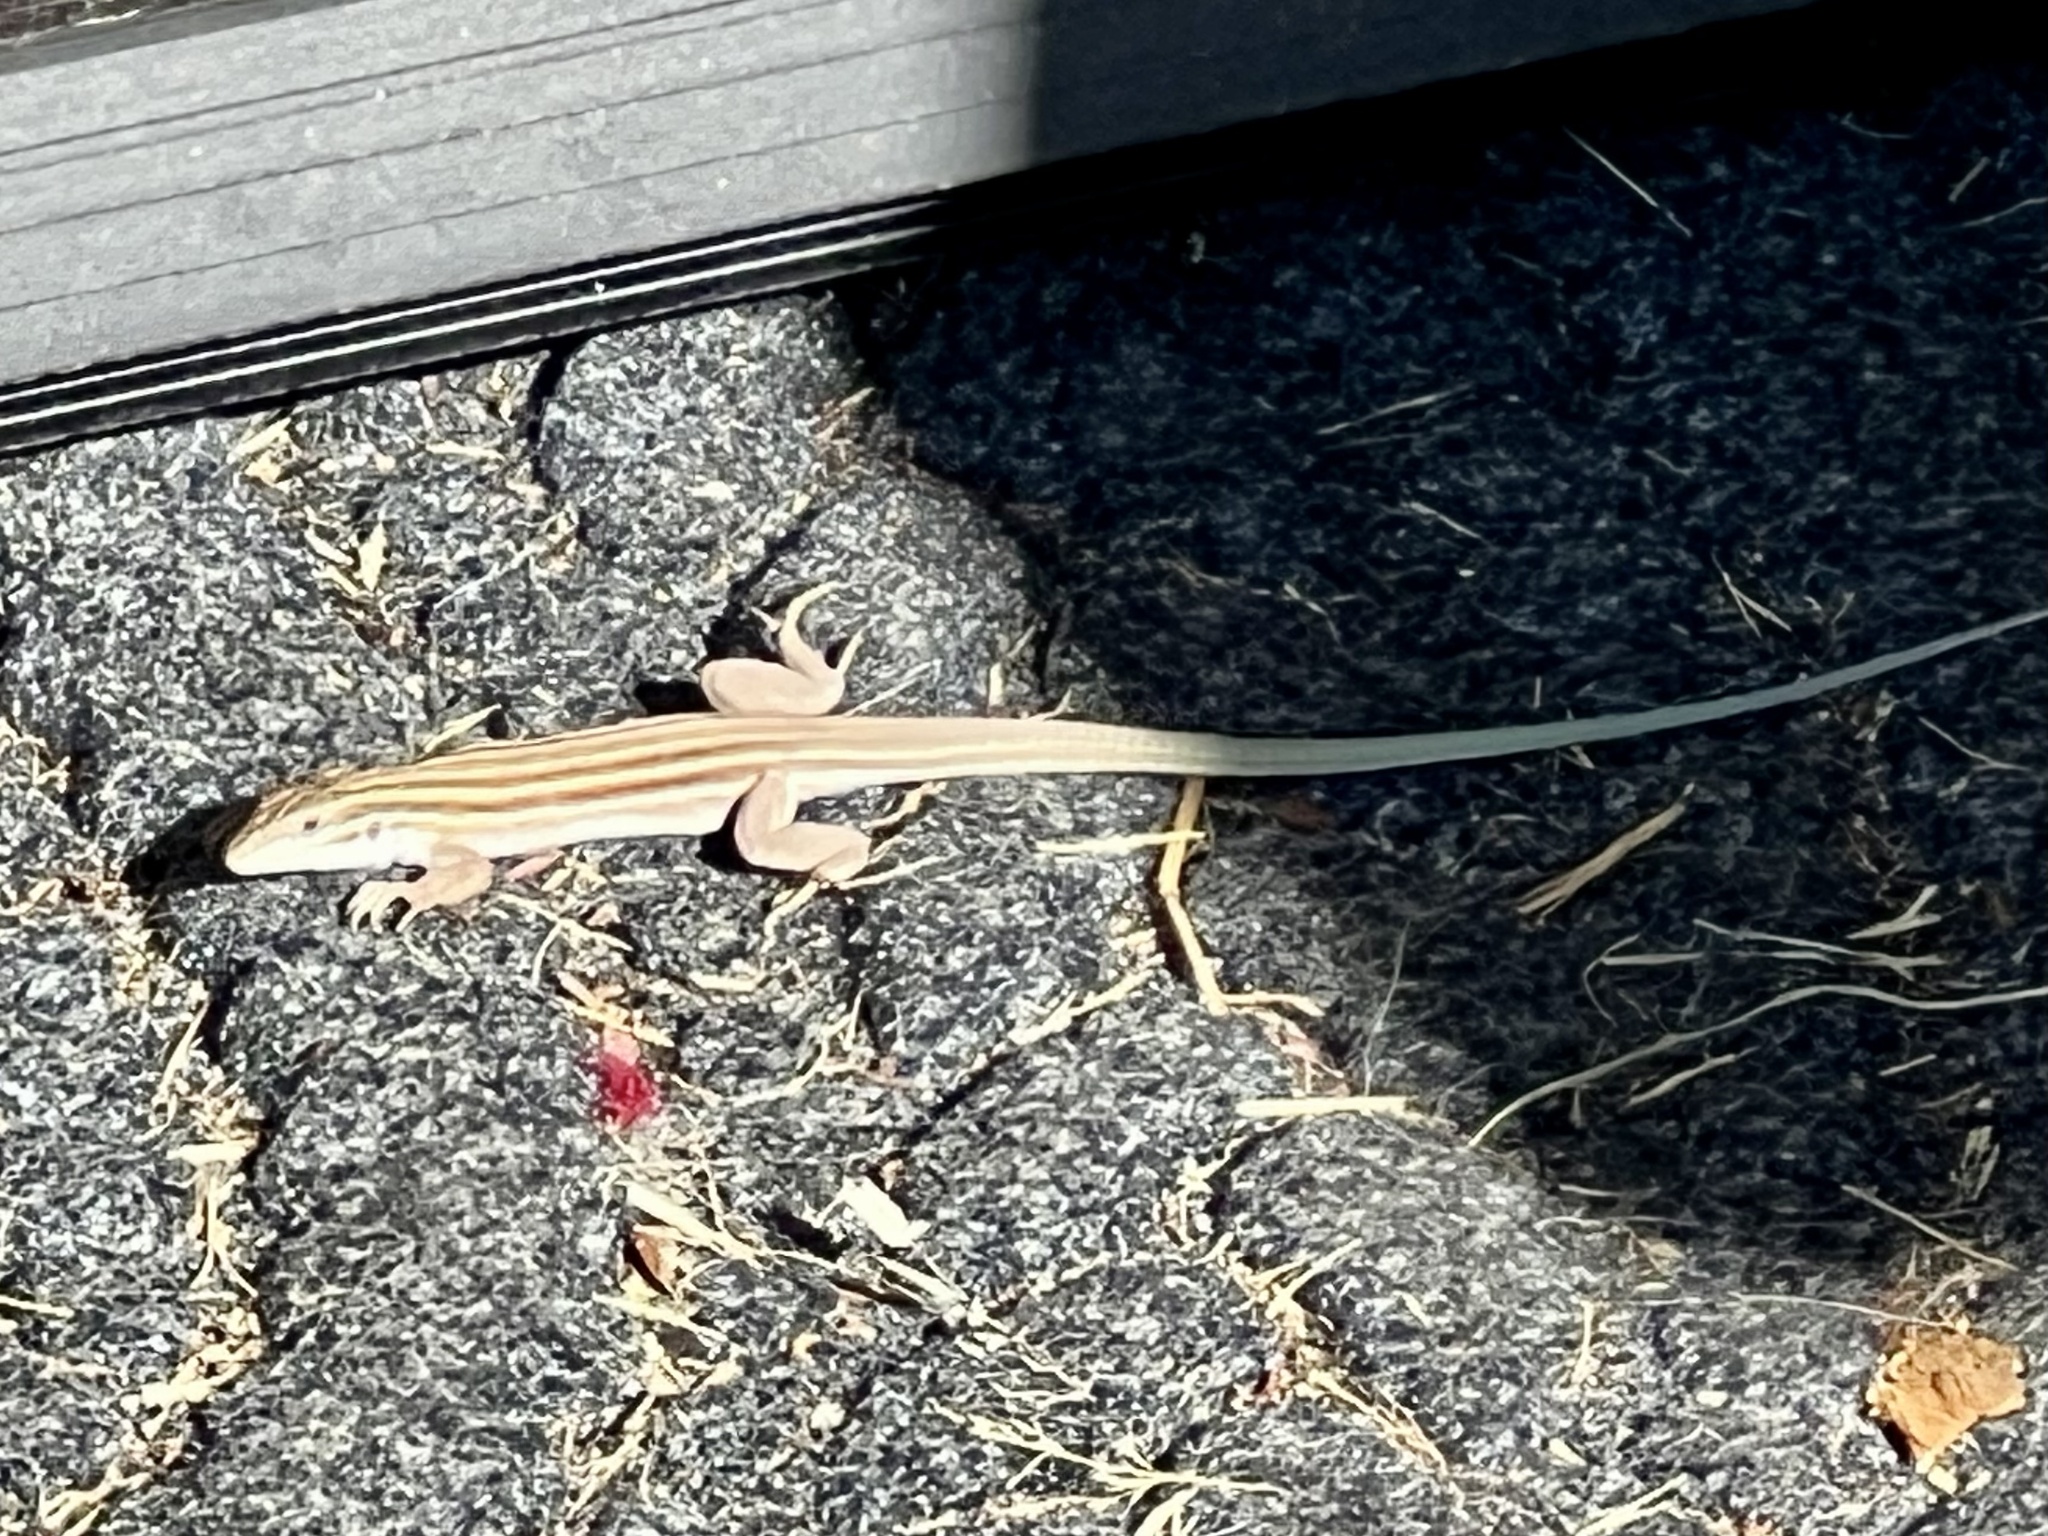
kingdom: Animalia
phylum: Chordata
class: Squamata
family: Teiidae
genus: Aspidoscelis
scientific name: Aspidoscelis uniparens
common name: Desert grassland whiptail
